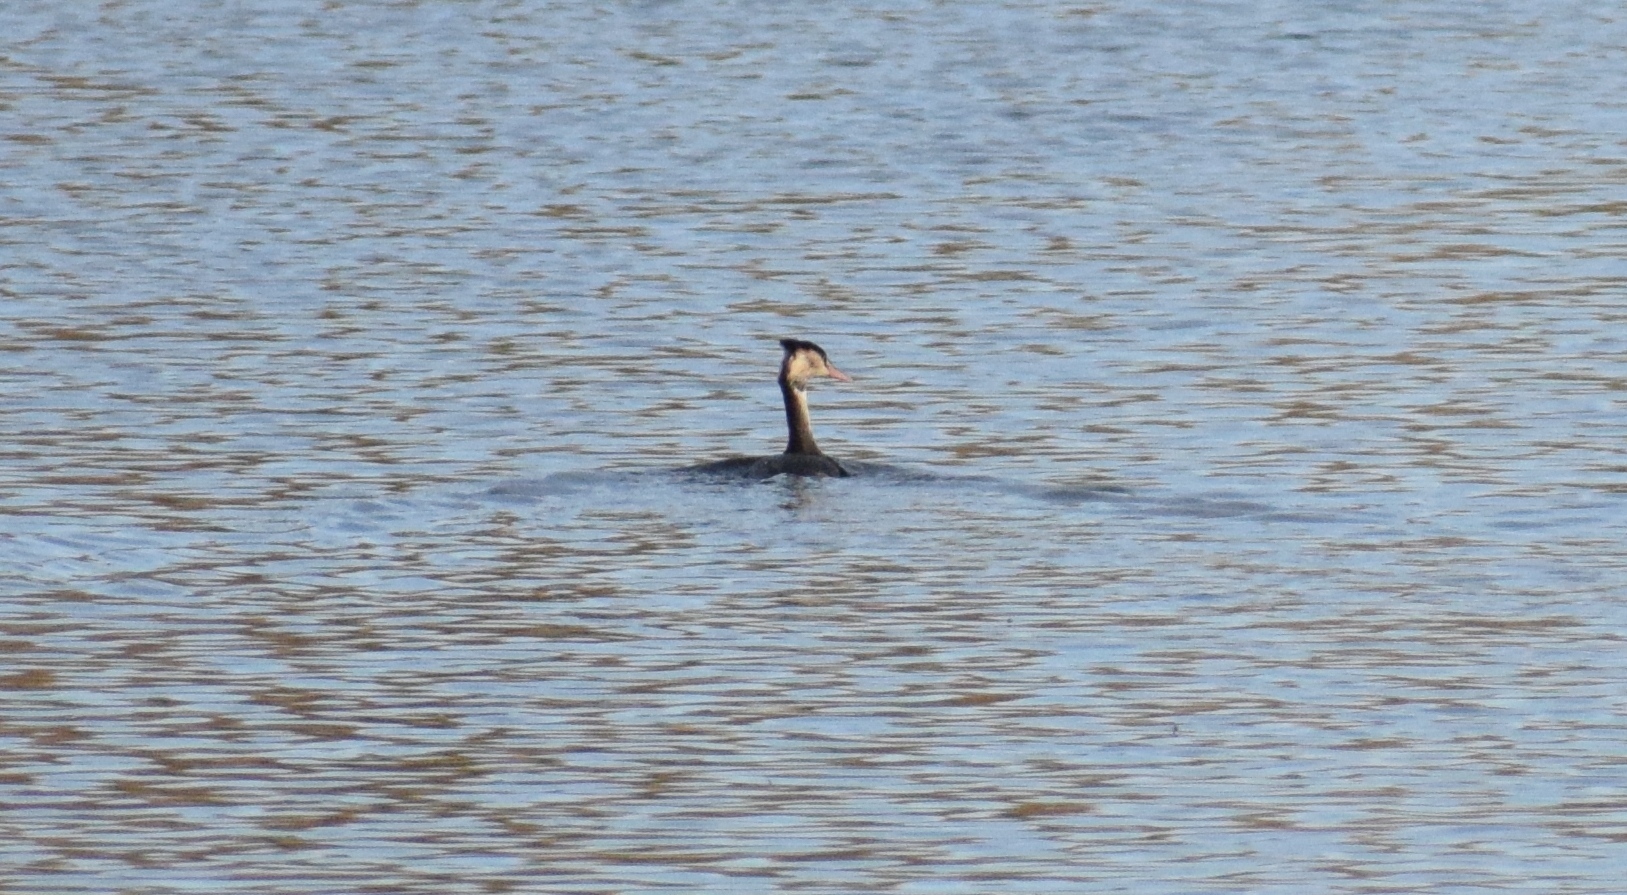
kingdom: Animalia
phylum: Chordata
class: Aves
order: Podicipediformes
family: Podicipedidae
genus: Podiceps
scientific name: Podiceps cristatus
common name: Great crested grebe
